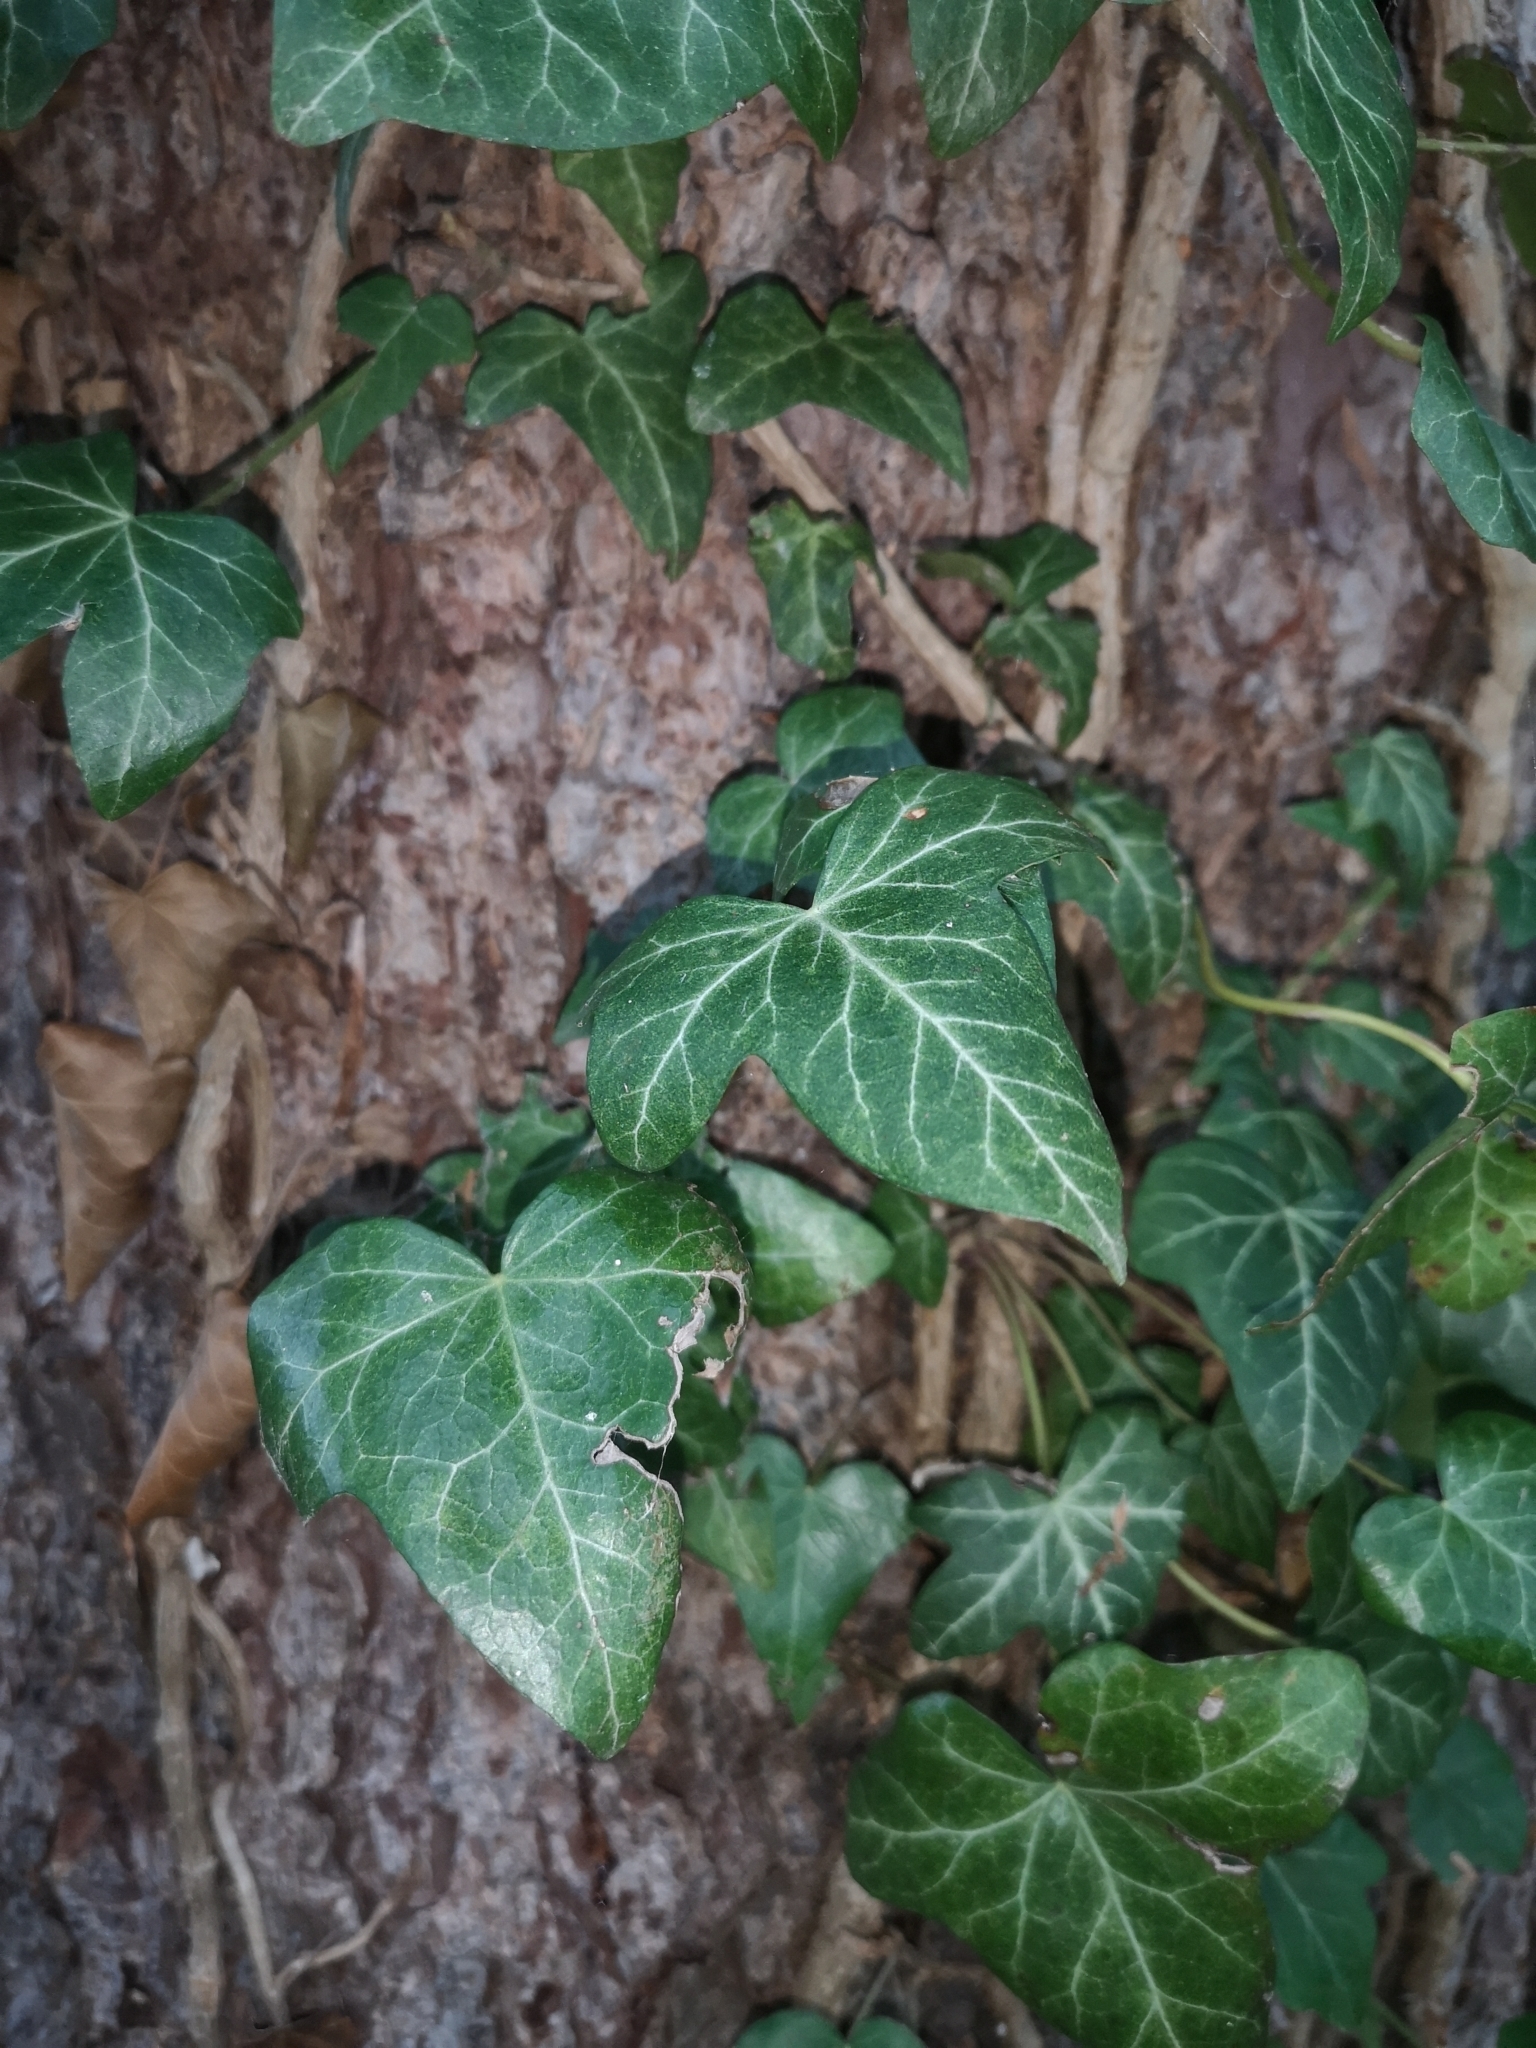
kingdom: Plantae
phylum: Tracheophyta
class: Magnoliopsida
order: Apiales
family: Araliaceae
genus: Hedera
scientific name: Hedera helix
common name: Ivy
